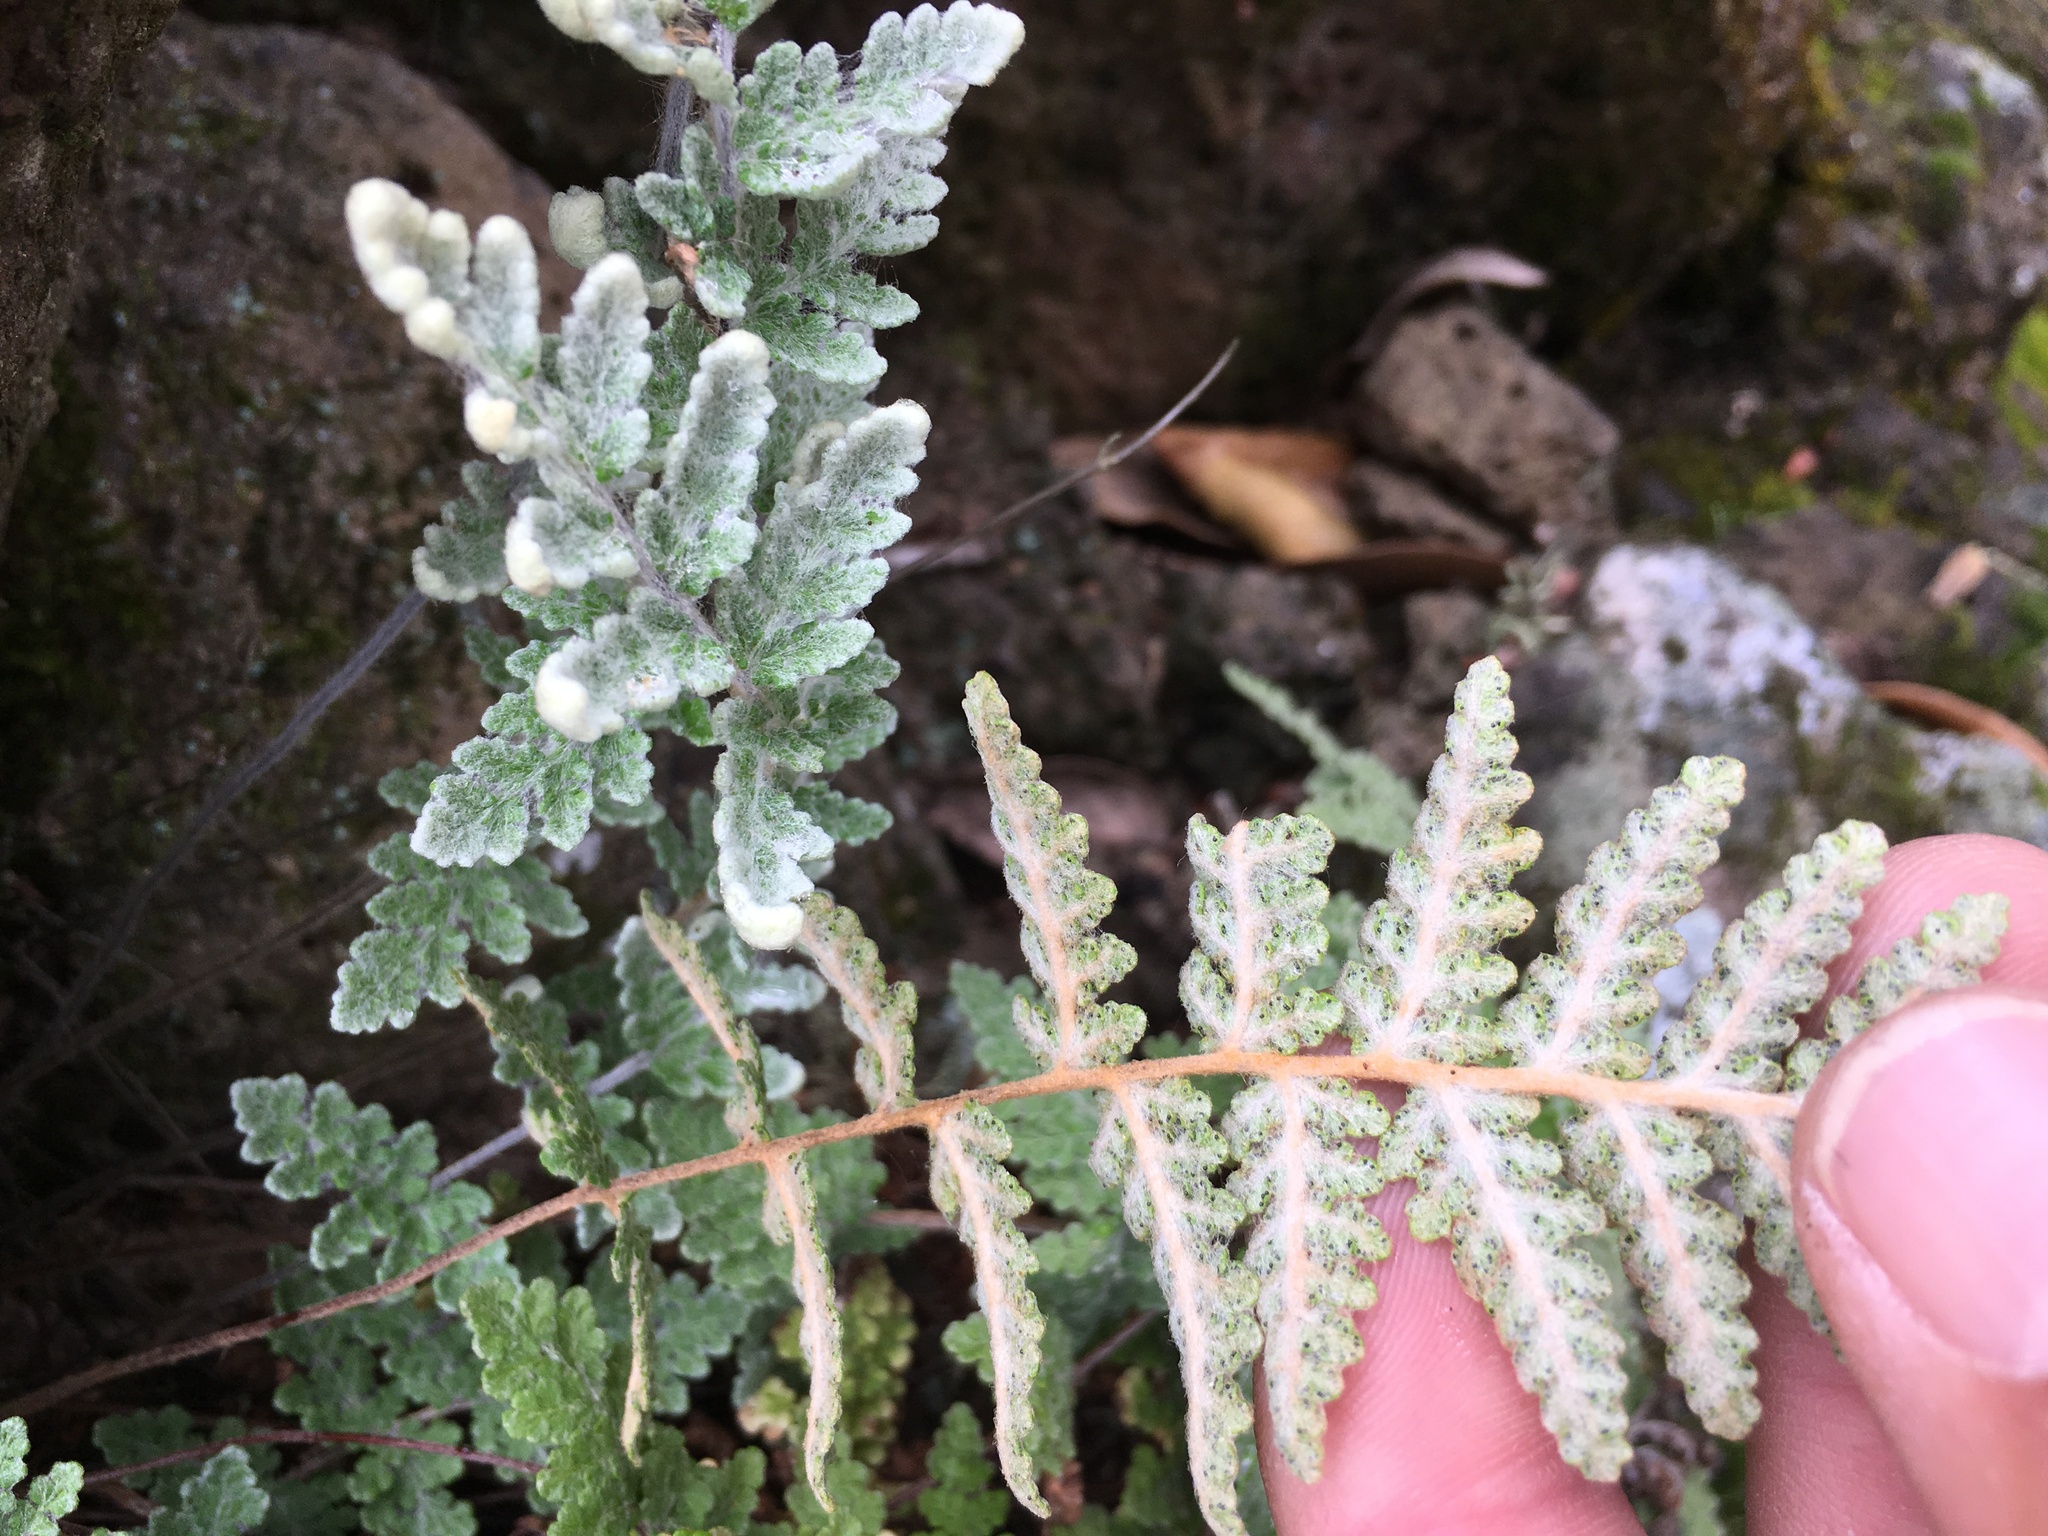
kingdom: Plantae
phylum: Tracheophyta
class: Polypodiopsida
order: Polypodiales
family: Pteridaceae
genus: Myriopteris
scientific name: Myriopteris newberryi
